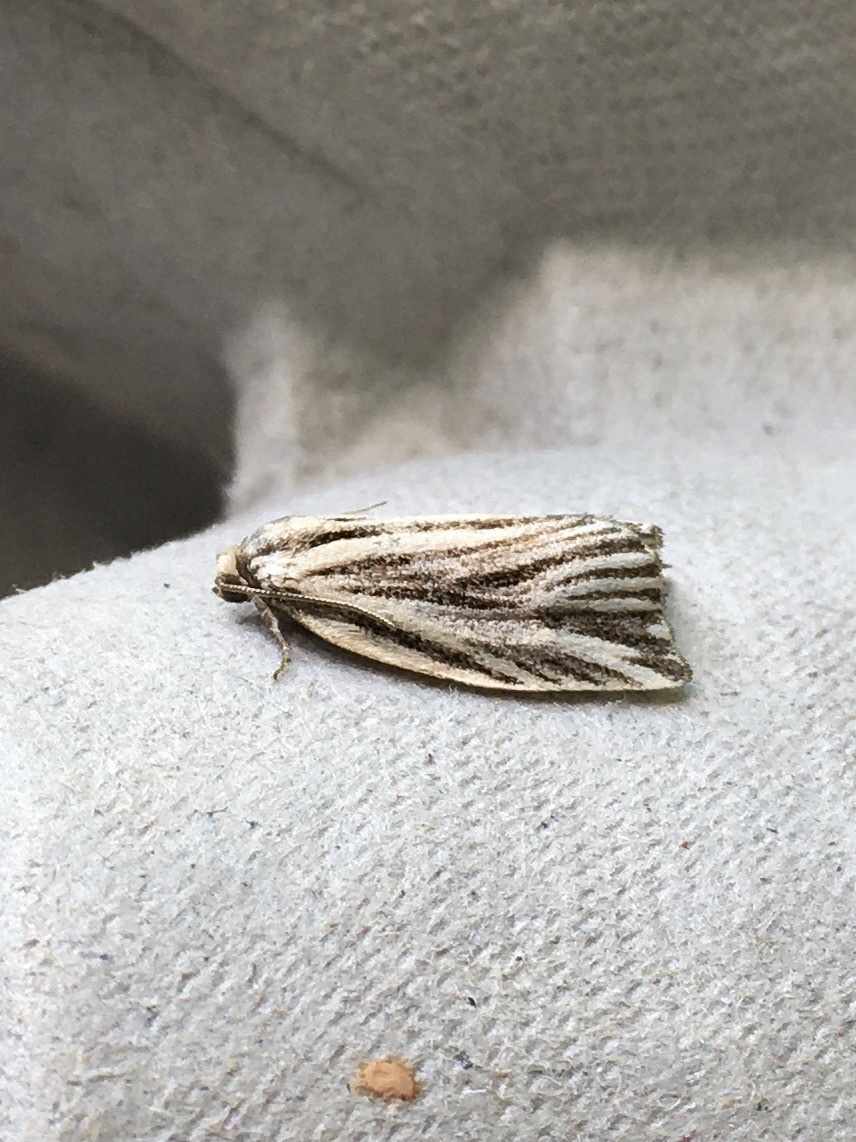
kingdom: Animalia
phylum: Arthropoda
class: Insecta
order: Lepidoptera
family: Tortricidae
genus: Archips
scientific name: Archips strianus
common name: Striated tortrix moth
